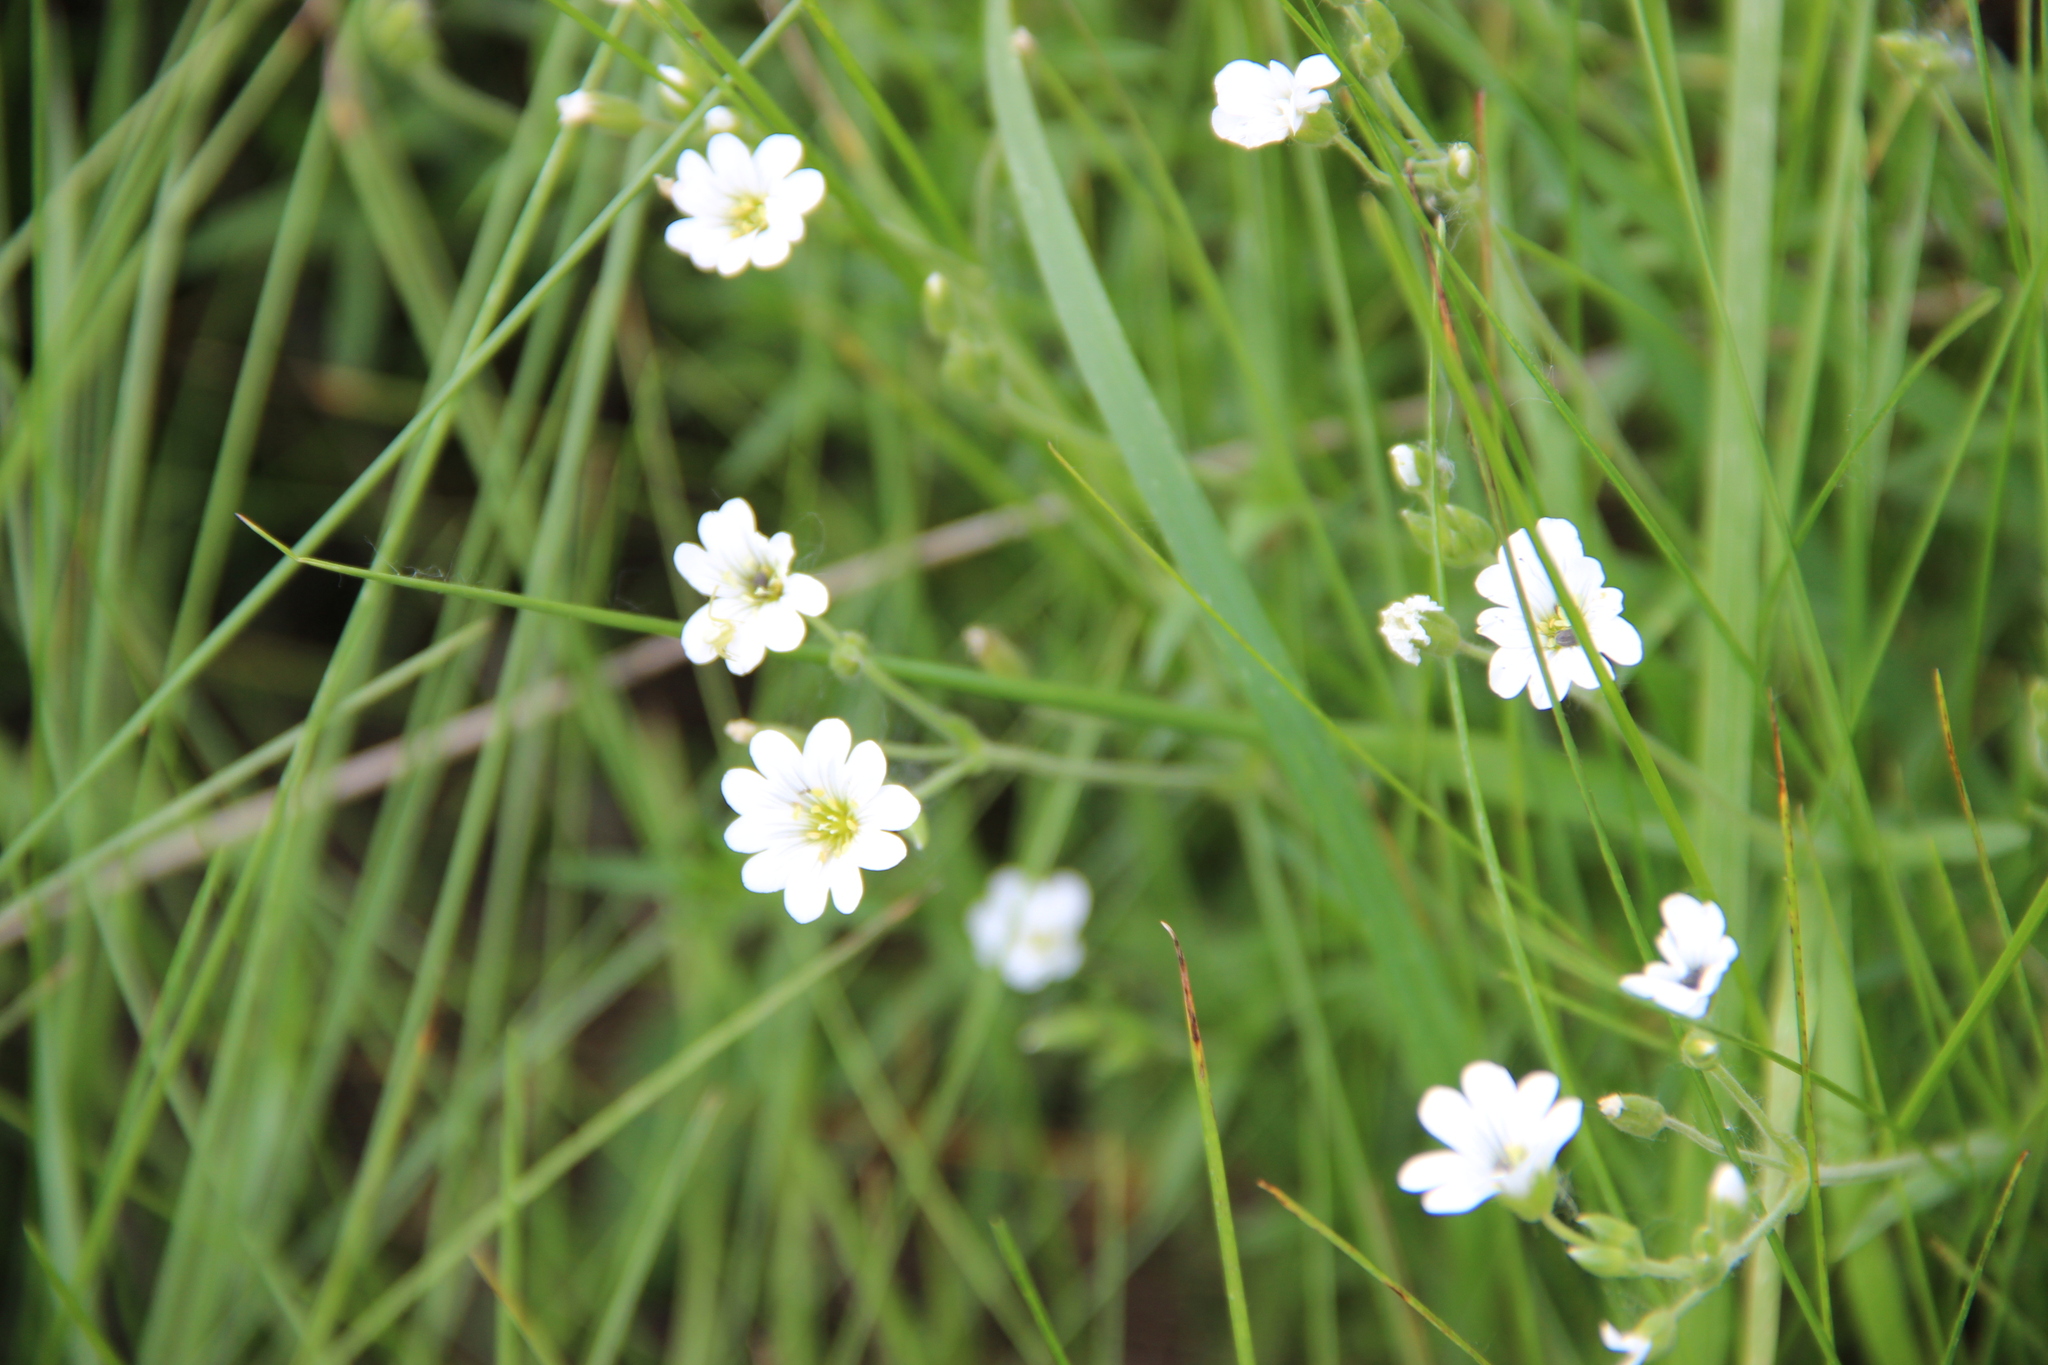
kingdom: Plantae
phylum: Tracheophyta
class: Magnoliopsida
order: Caryophyllales
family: Caryophyllaceae
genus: Cerastium
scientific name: Cerastium arvense
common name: Field mouse-ear
